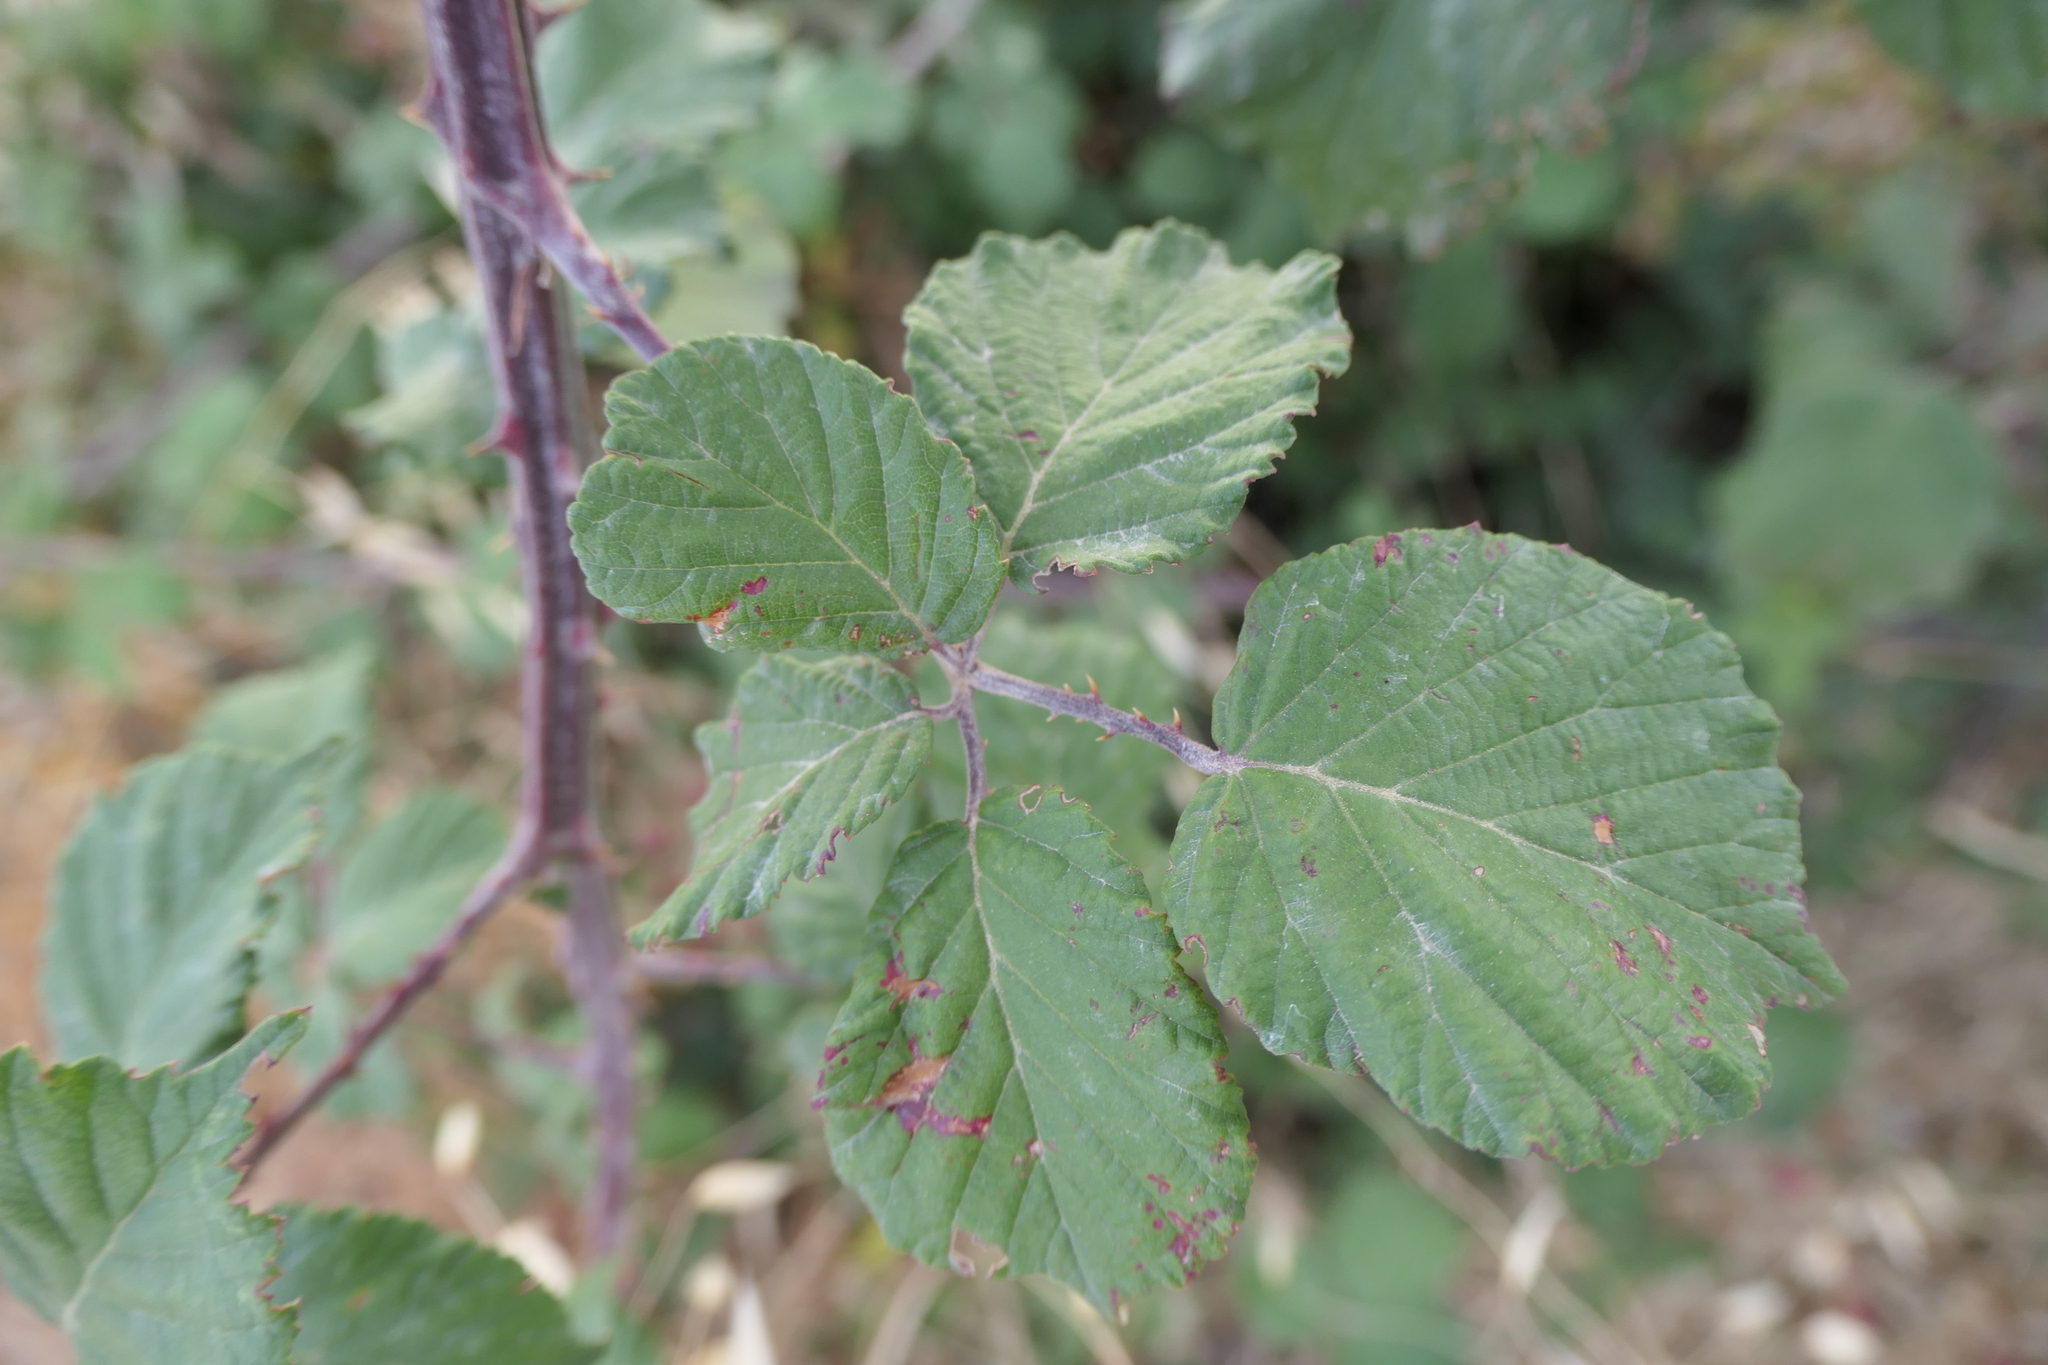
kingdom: Plantae
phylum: Tracheophyta
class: Magnoliopsida
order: Rosales
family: Rosaceae
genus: Rubus
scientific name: Rubus ulmifolius
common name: Elmleaf blackberry
